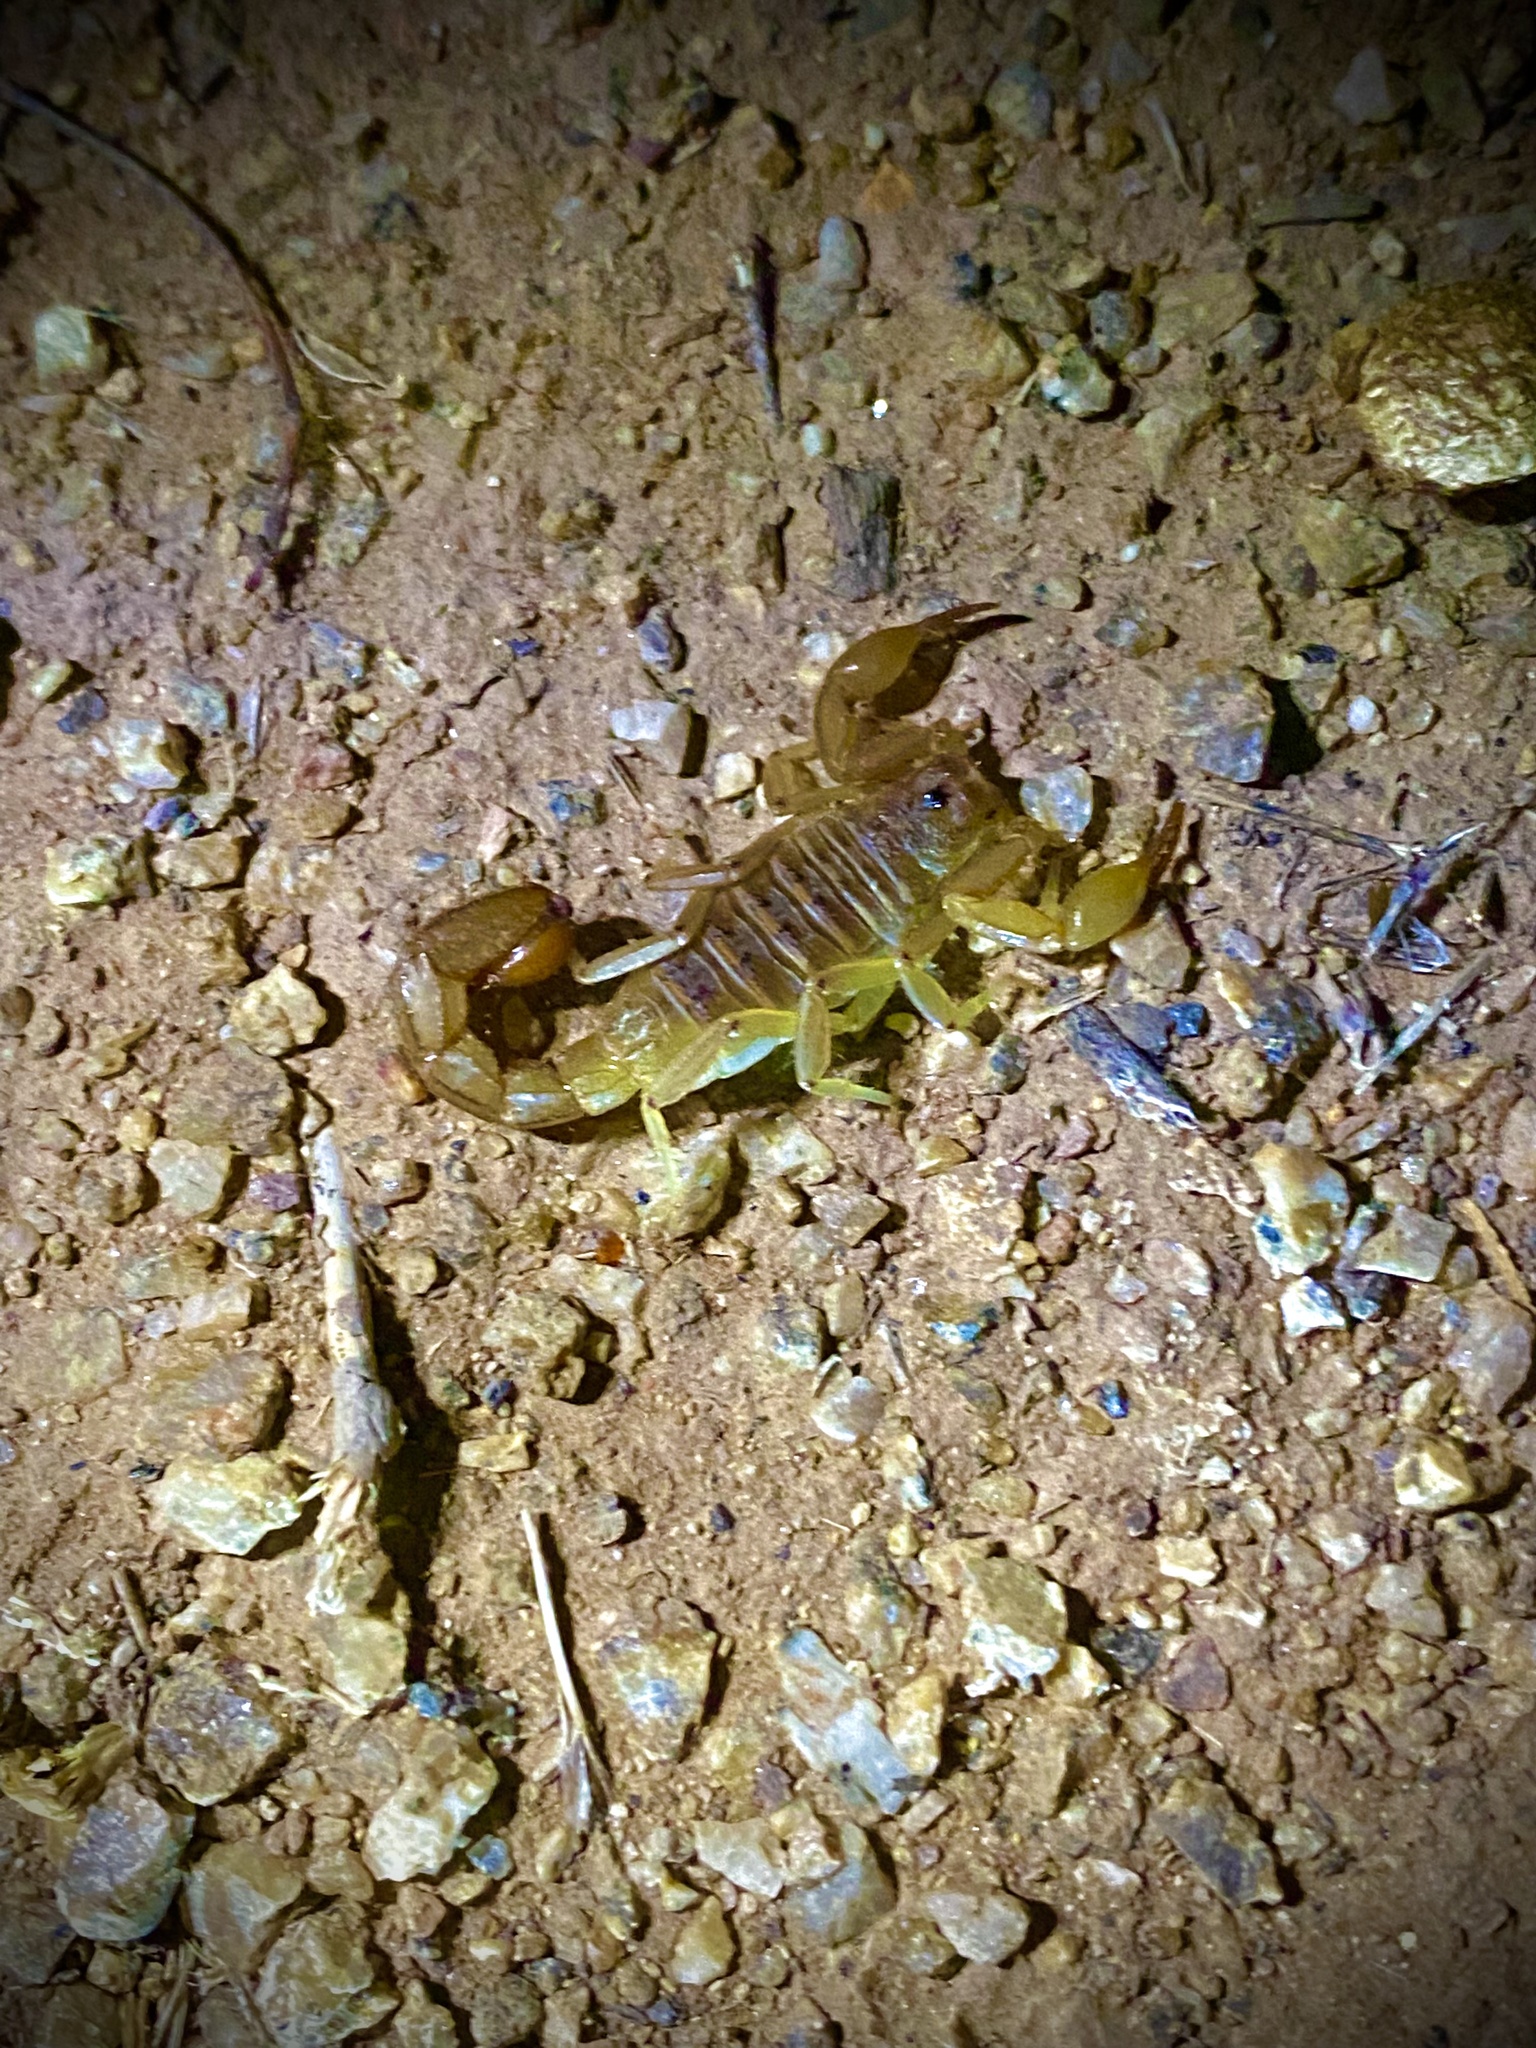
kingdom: Animalia
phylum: Arthropoda
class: Arachnida
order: Scorpiones
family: Vaejovidae
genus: Paravaejovis
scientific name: Paravaejovis spinigerus
